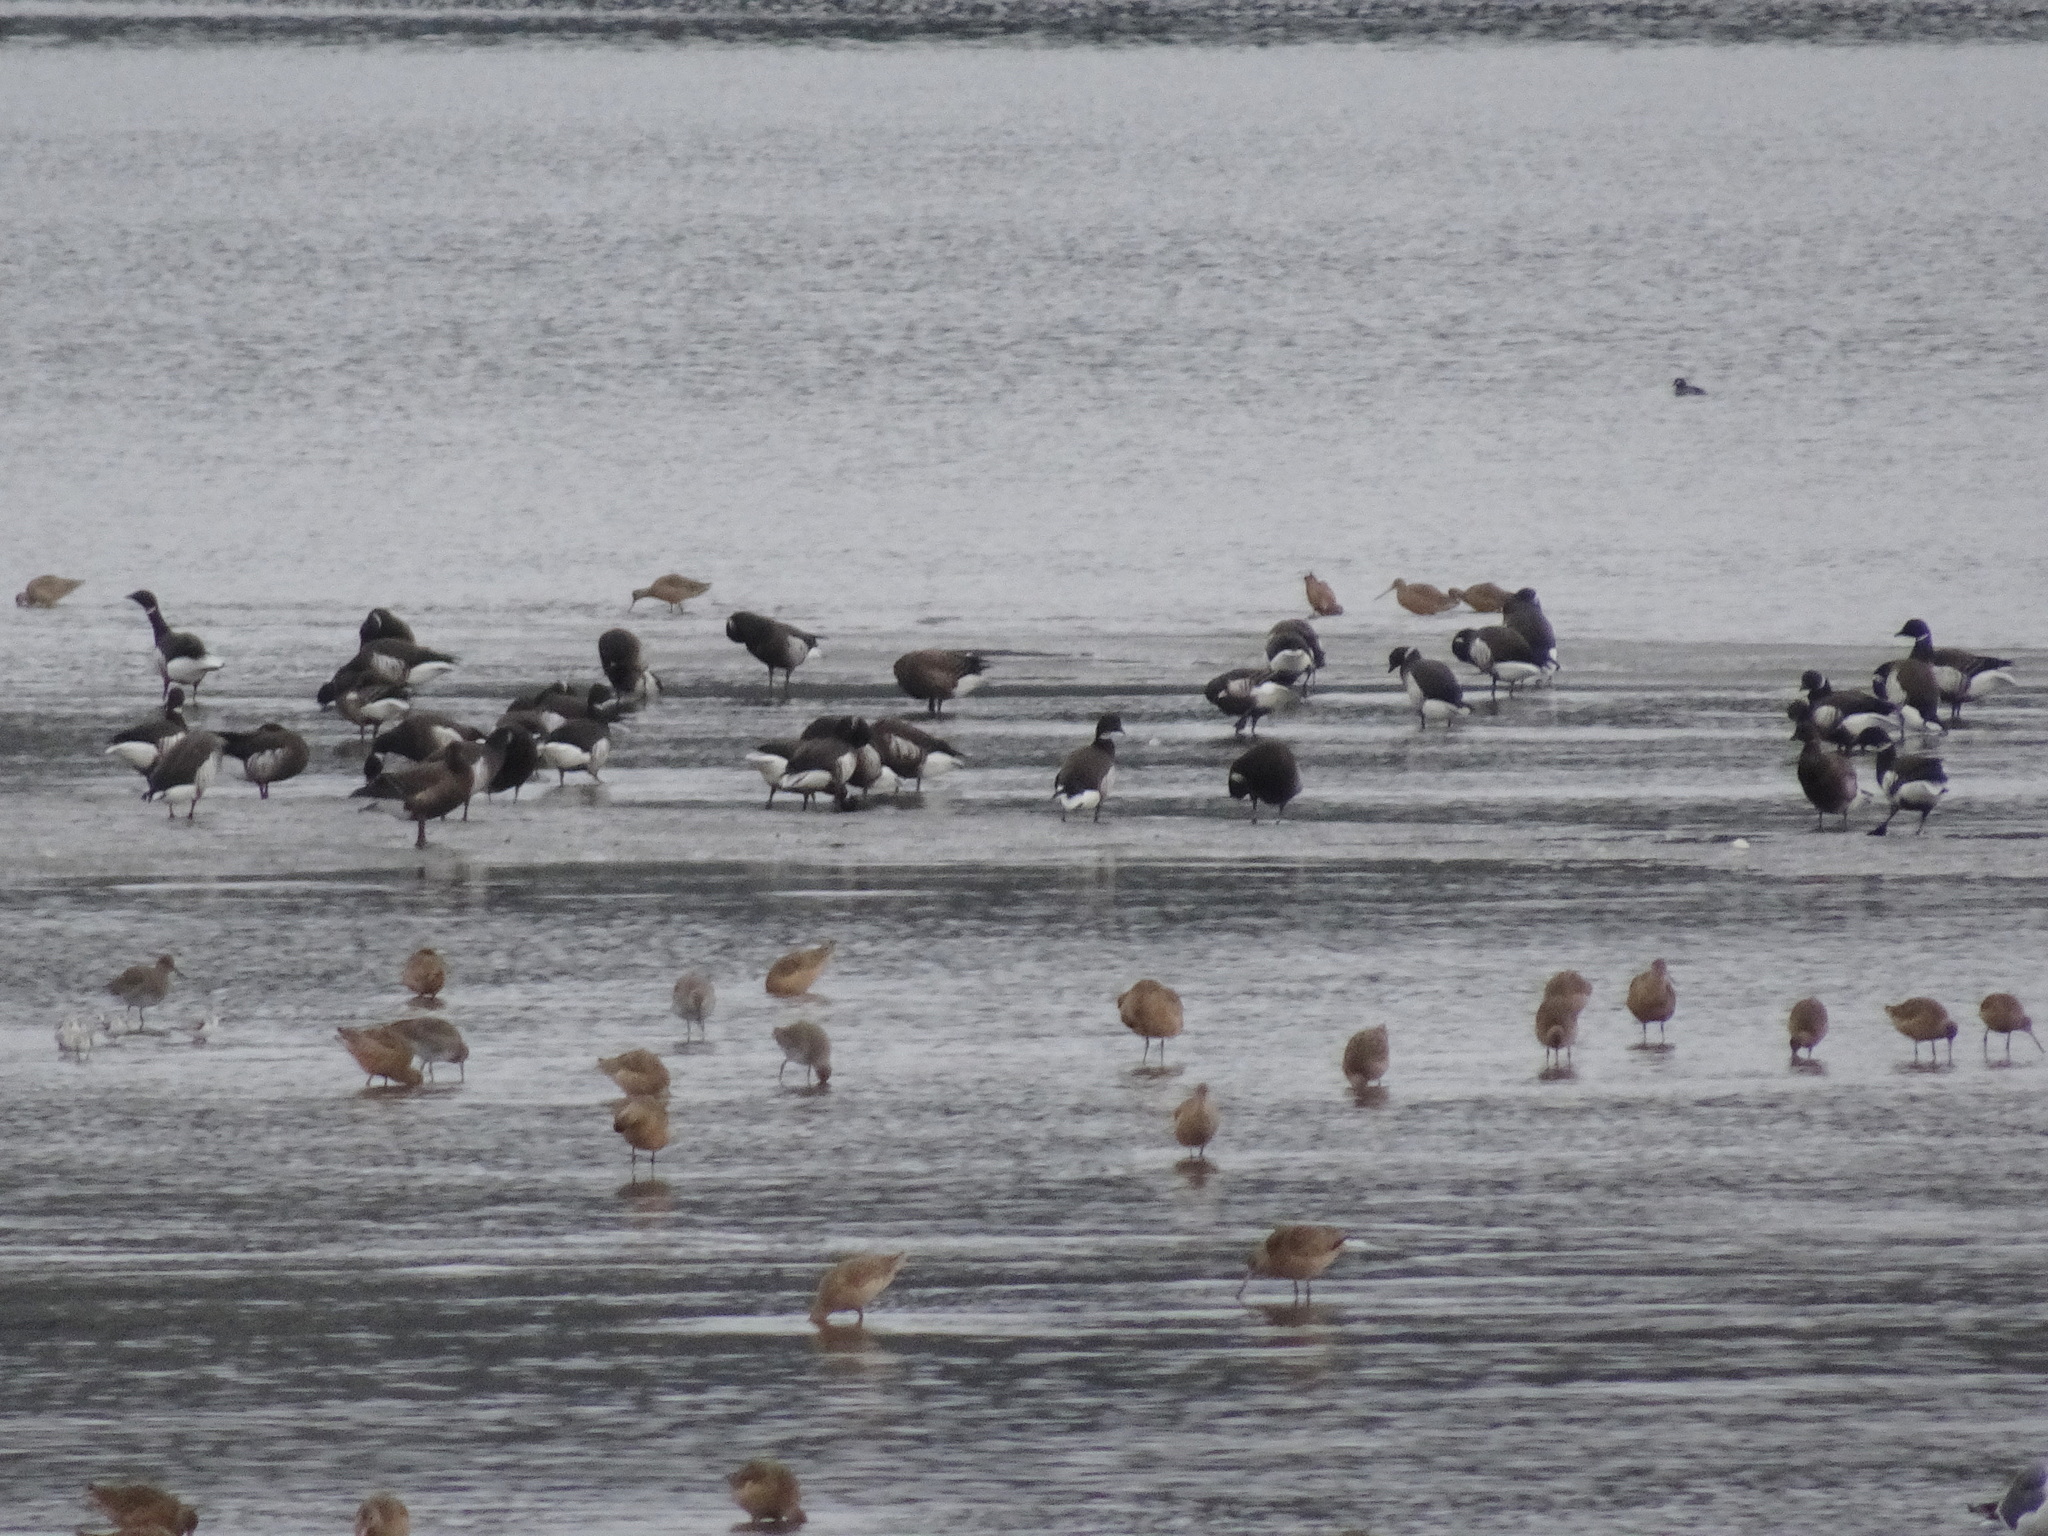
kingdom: Animalia
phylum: Chordata
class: Aves
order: Anseriformes
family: Anatidae
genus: Branta
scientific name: Branta bernicla
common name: Brant goose
